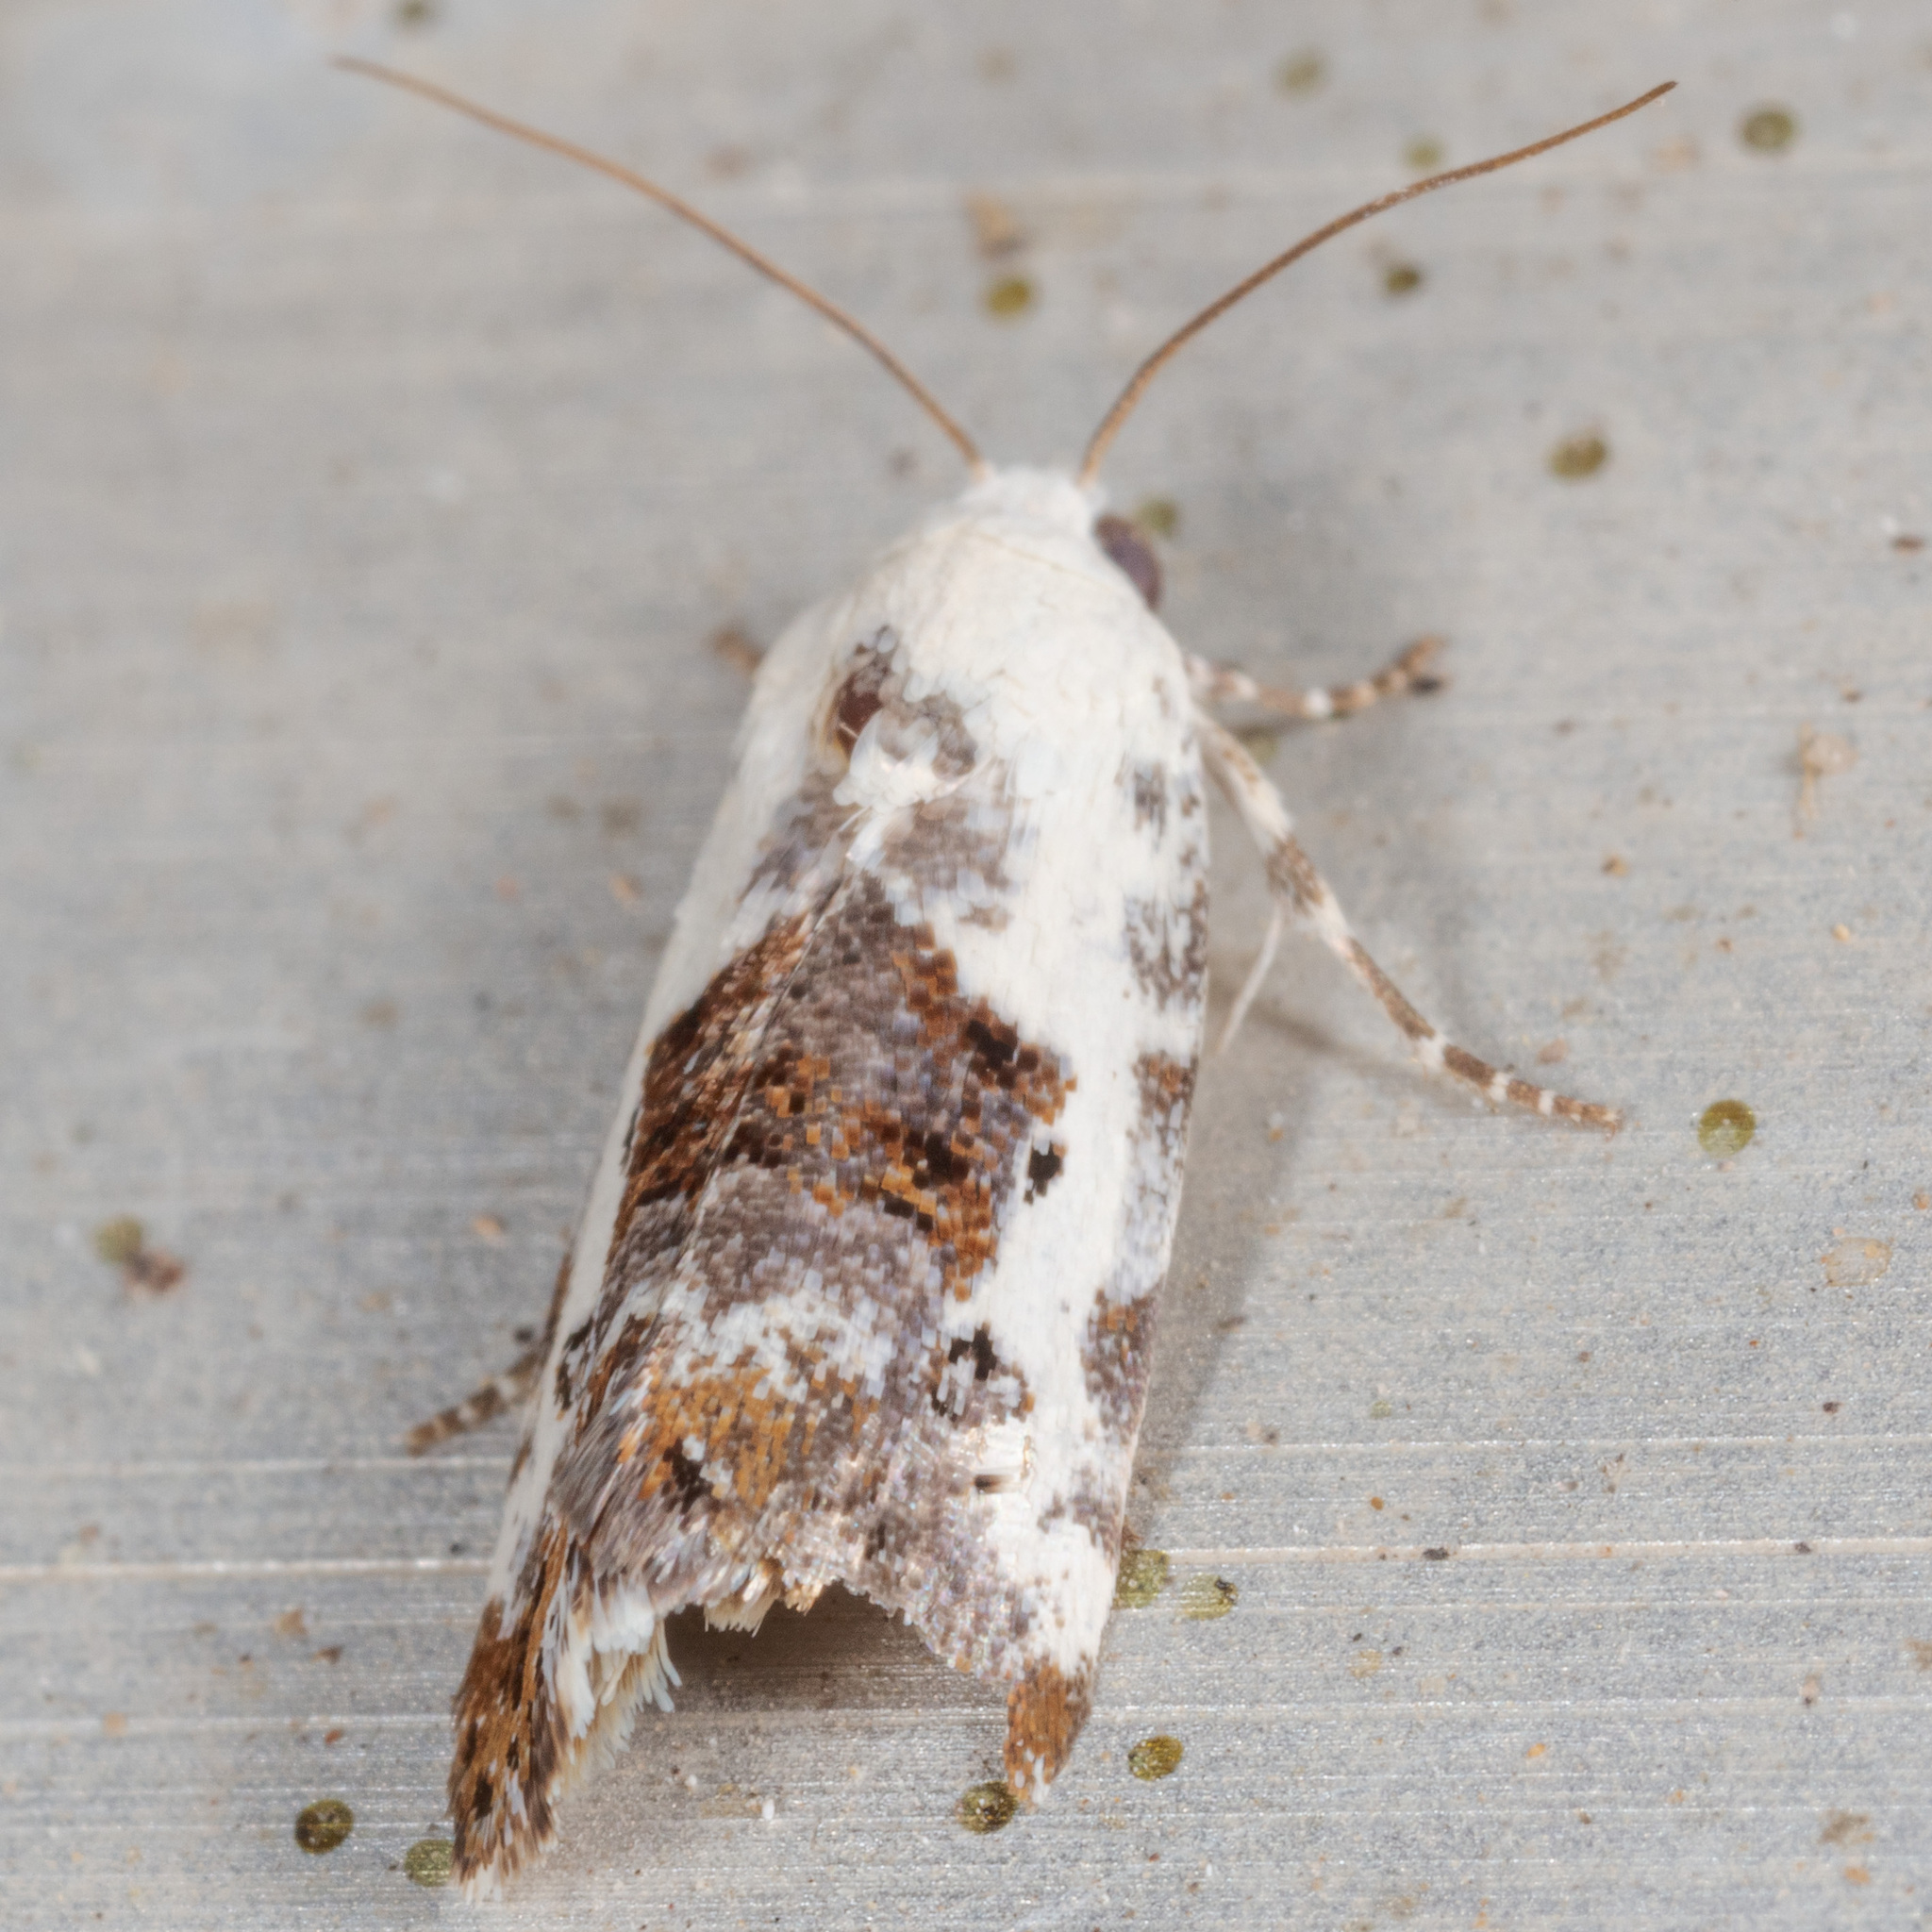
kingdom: Animalia
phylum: Arthropoda
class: Insecta
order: Lepidoptera
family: Noctuidae
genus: Acontia
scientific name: Acontia phecolisca
